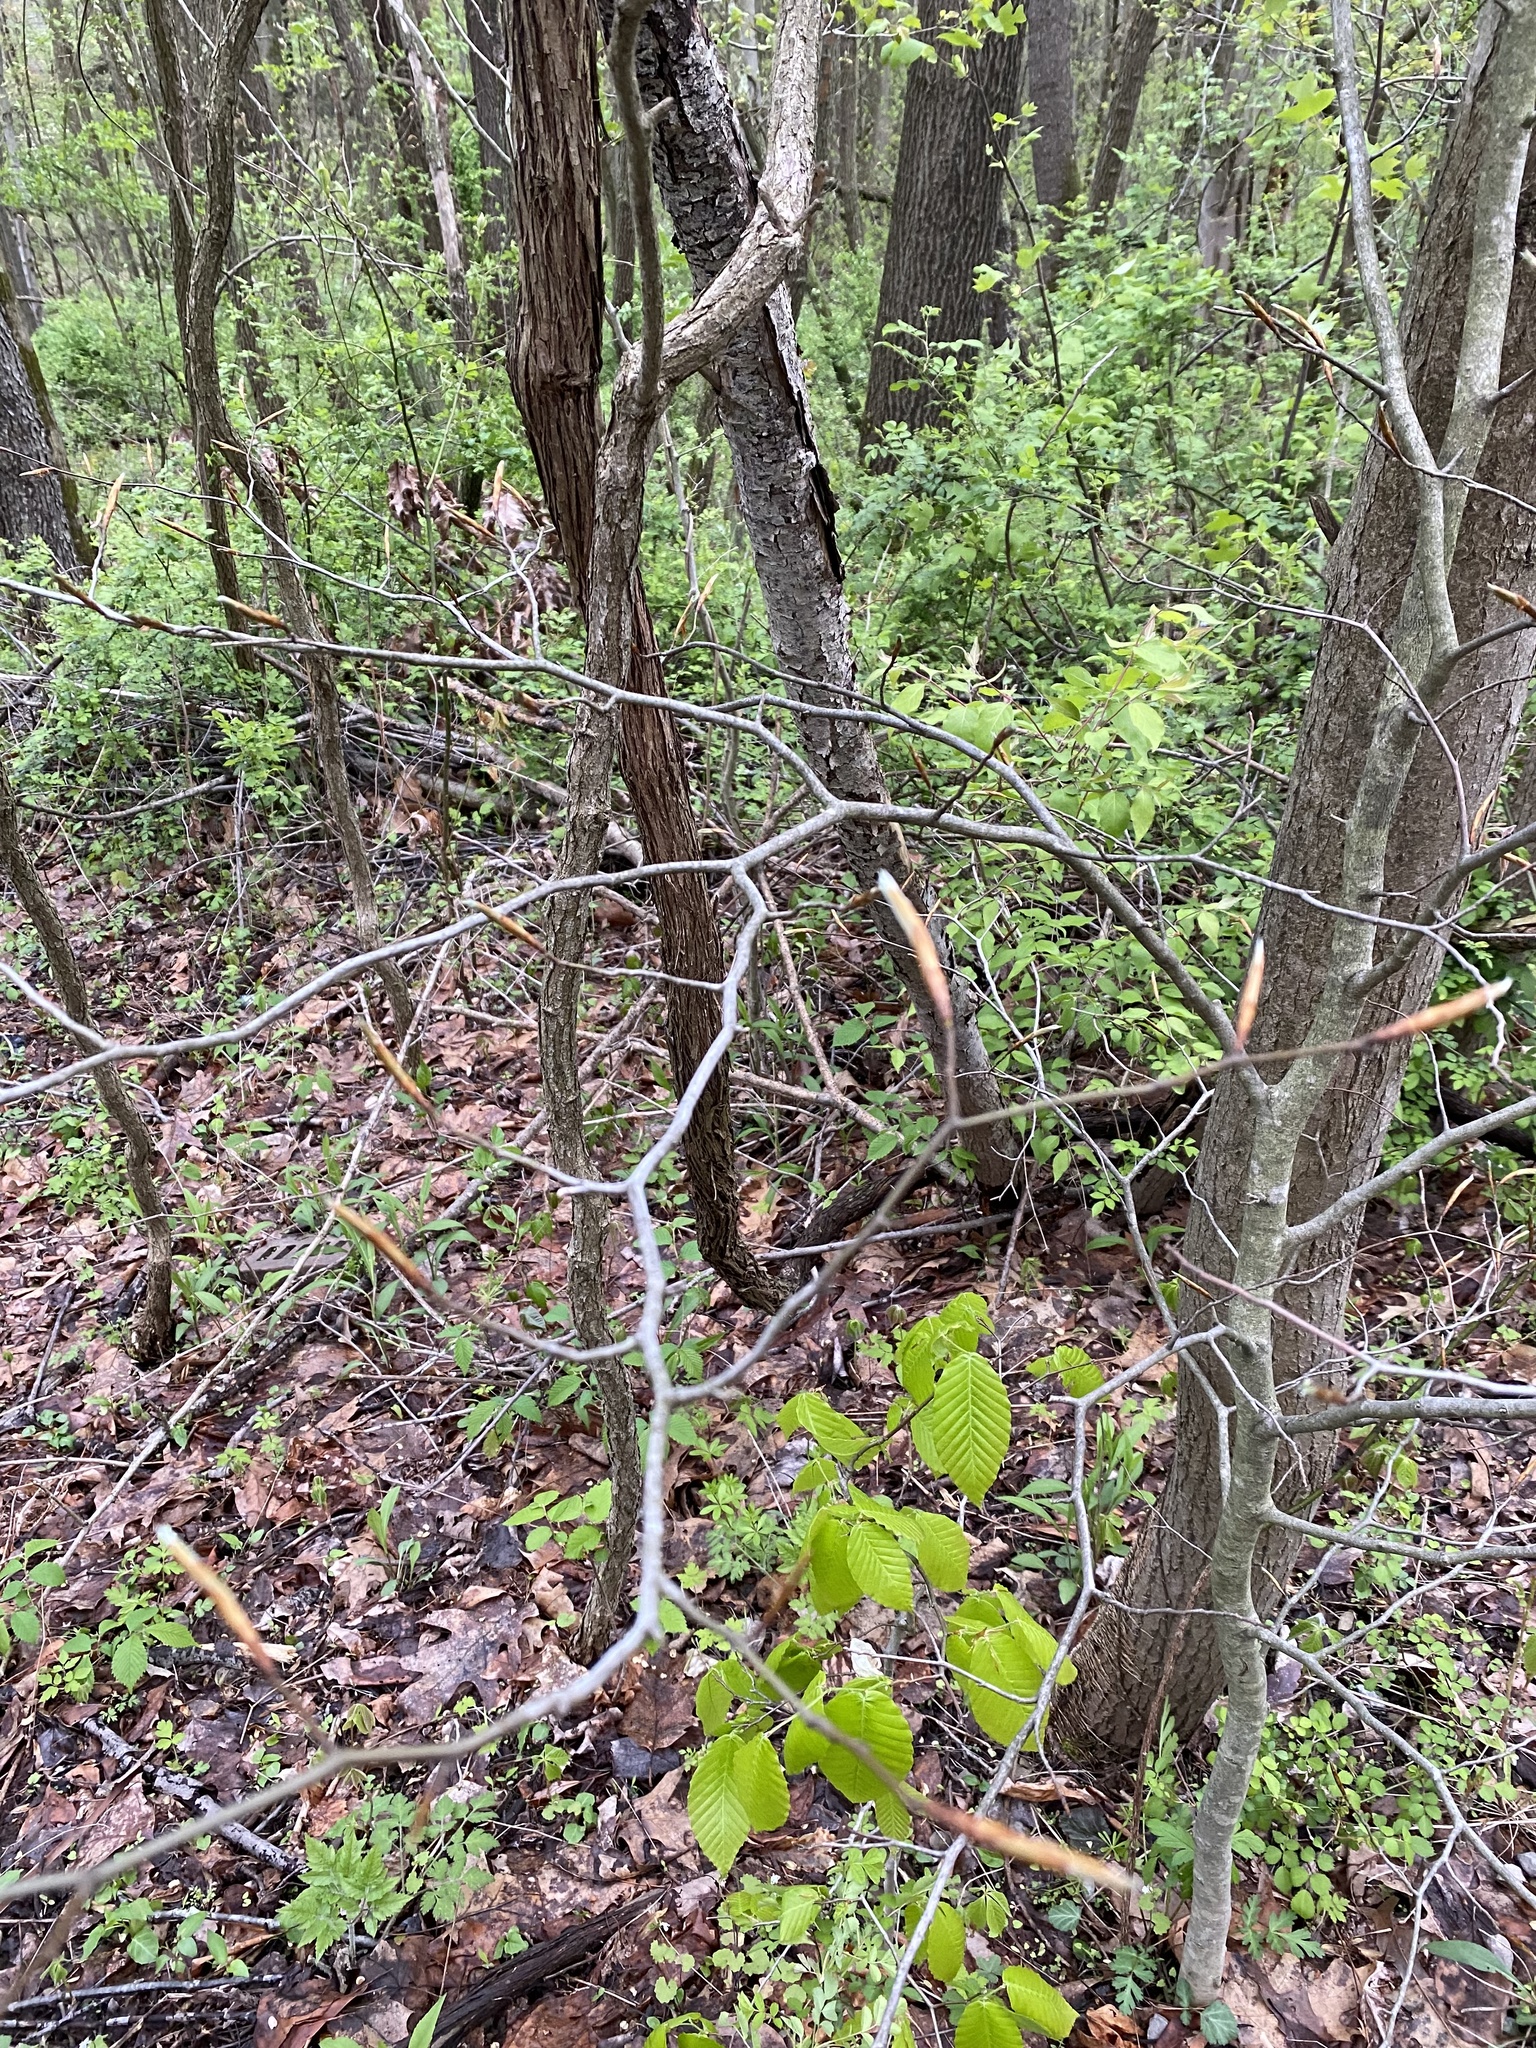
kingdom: Plantae
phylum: Tracheophyta
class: Magnoliopsida
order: Fagales
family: Fagaceae
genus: Fagus
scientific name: Fagus grandifolia
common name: American beech
